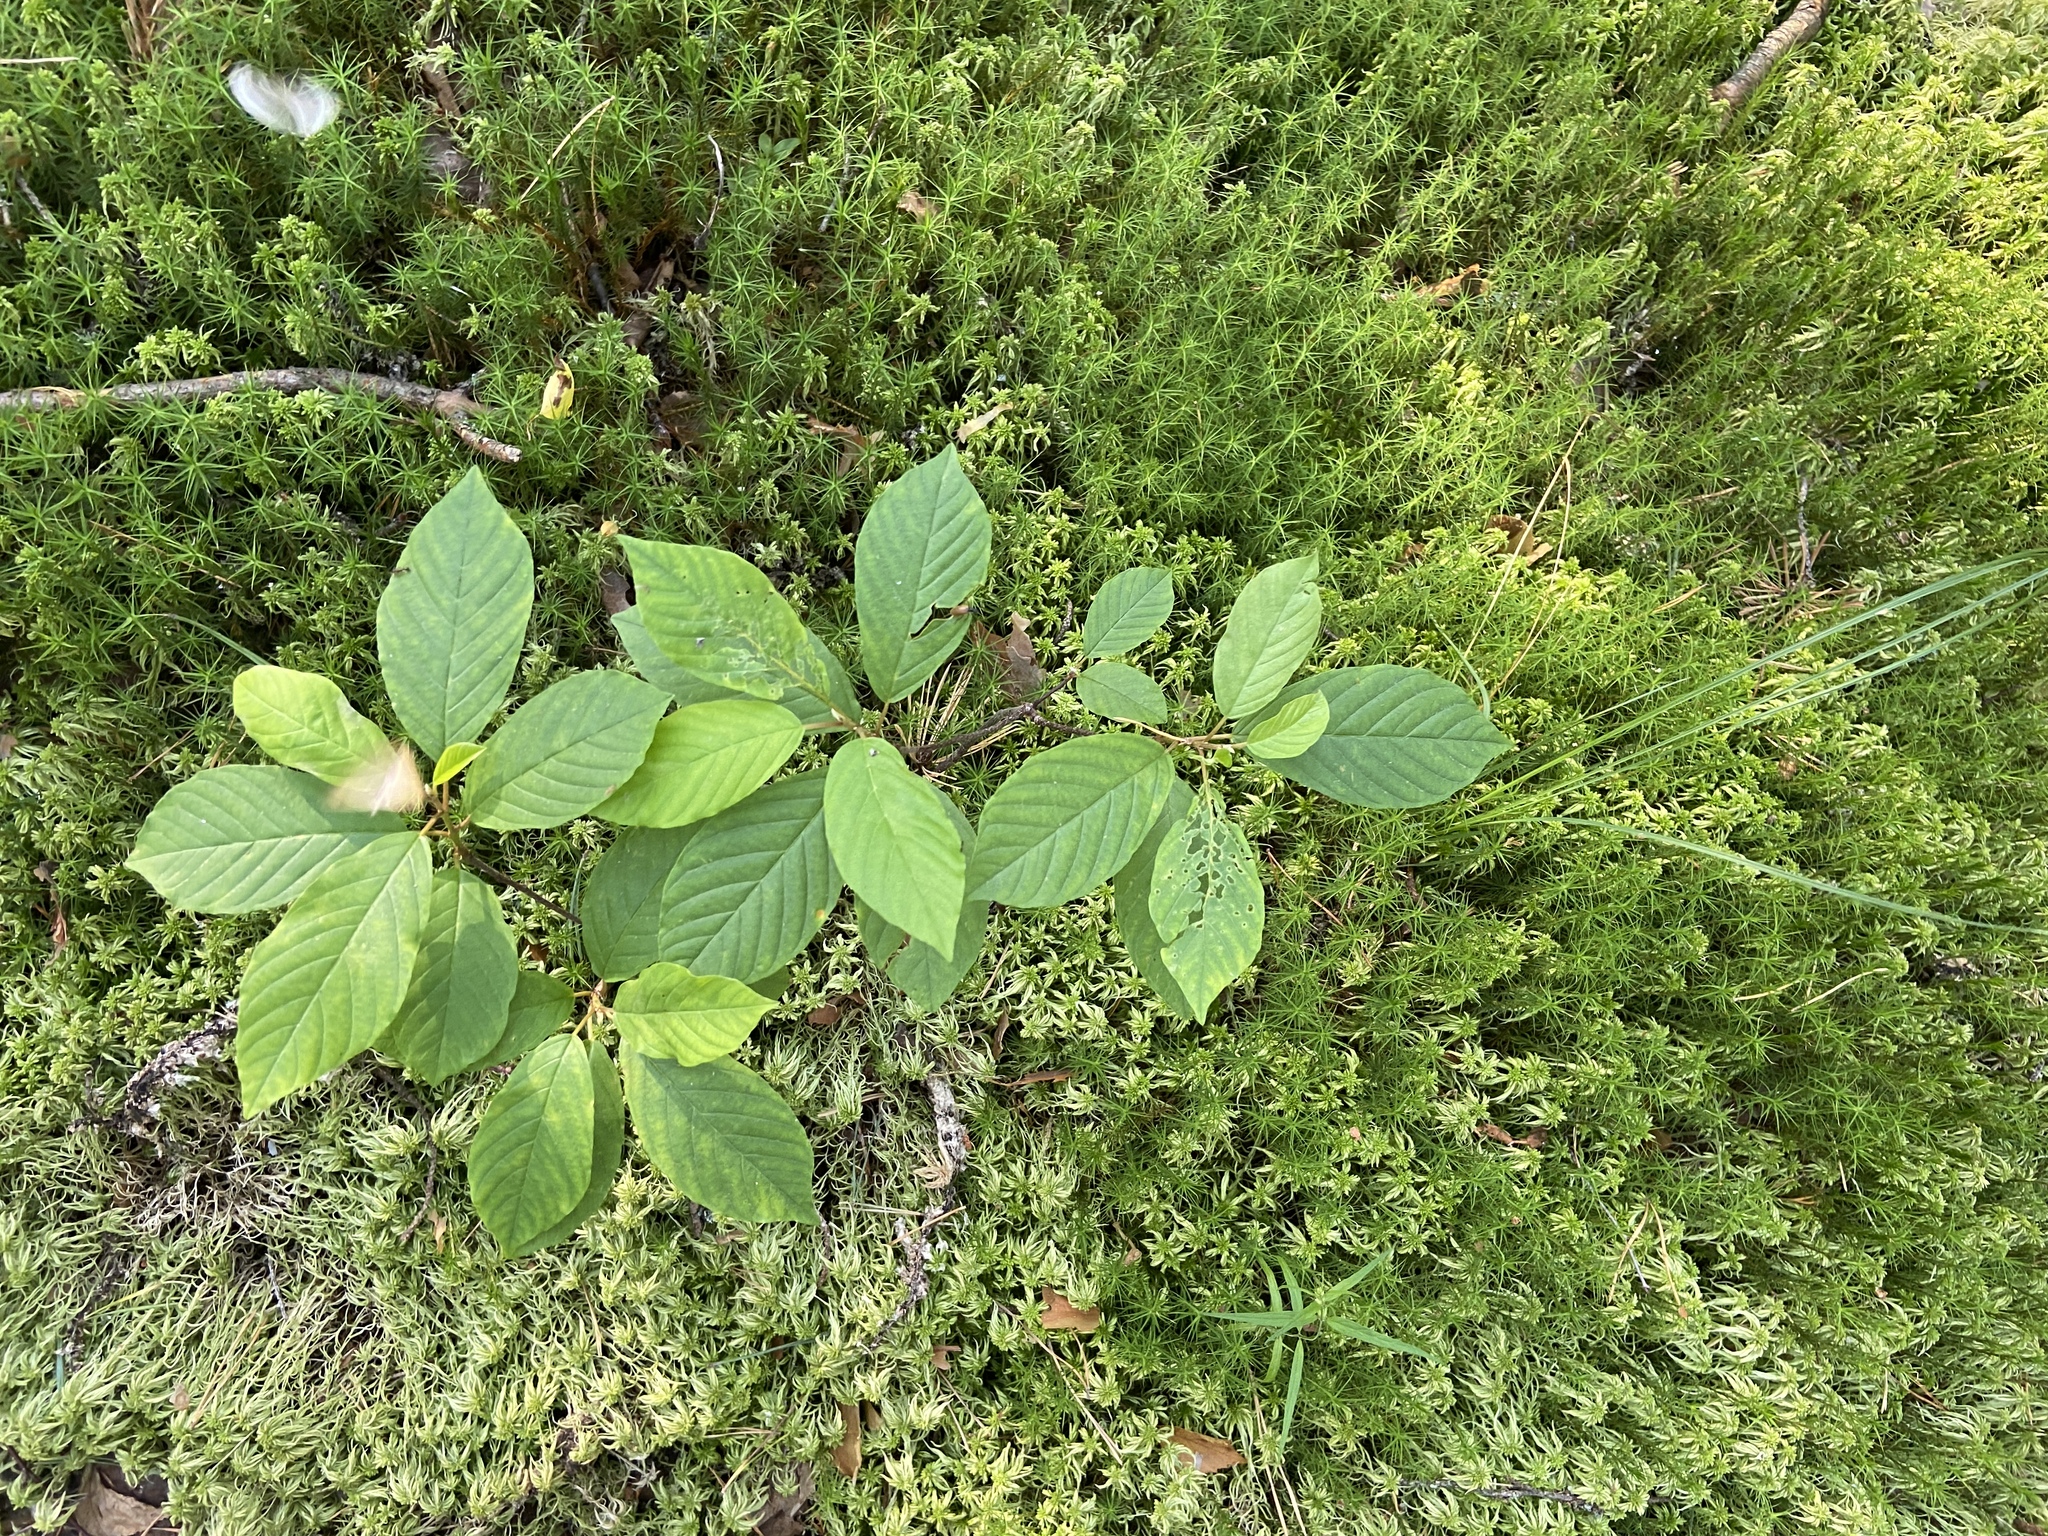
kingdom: Plantae
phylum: Tracheophyta
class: Magnoliopsida
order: Rosales
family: Rhamnaceae
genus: Frangula
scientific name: Frangula alnus
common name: Alder buckthorn
